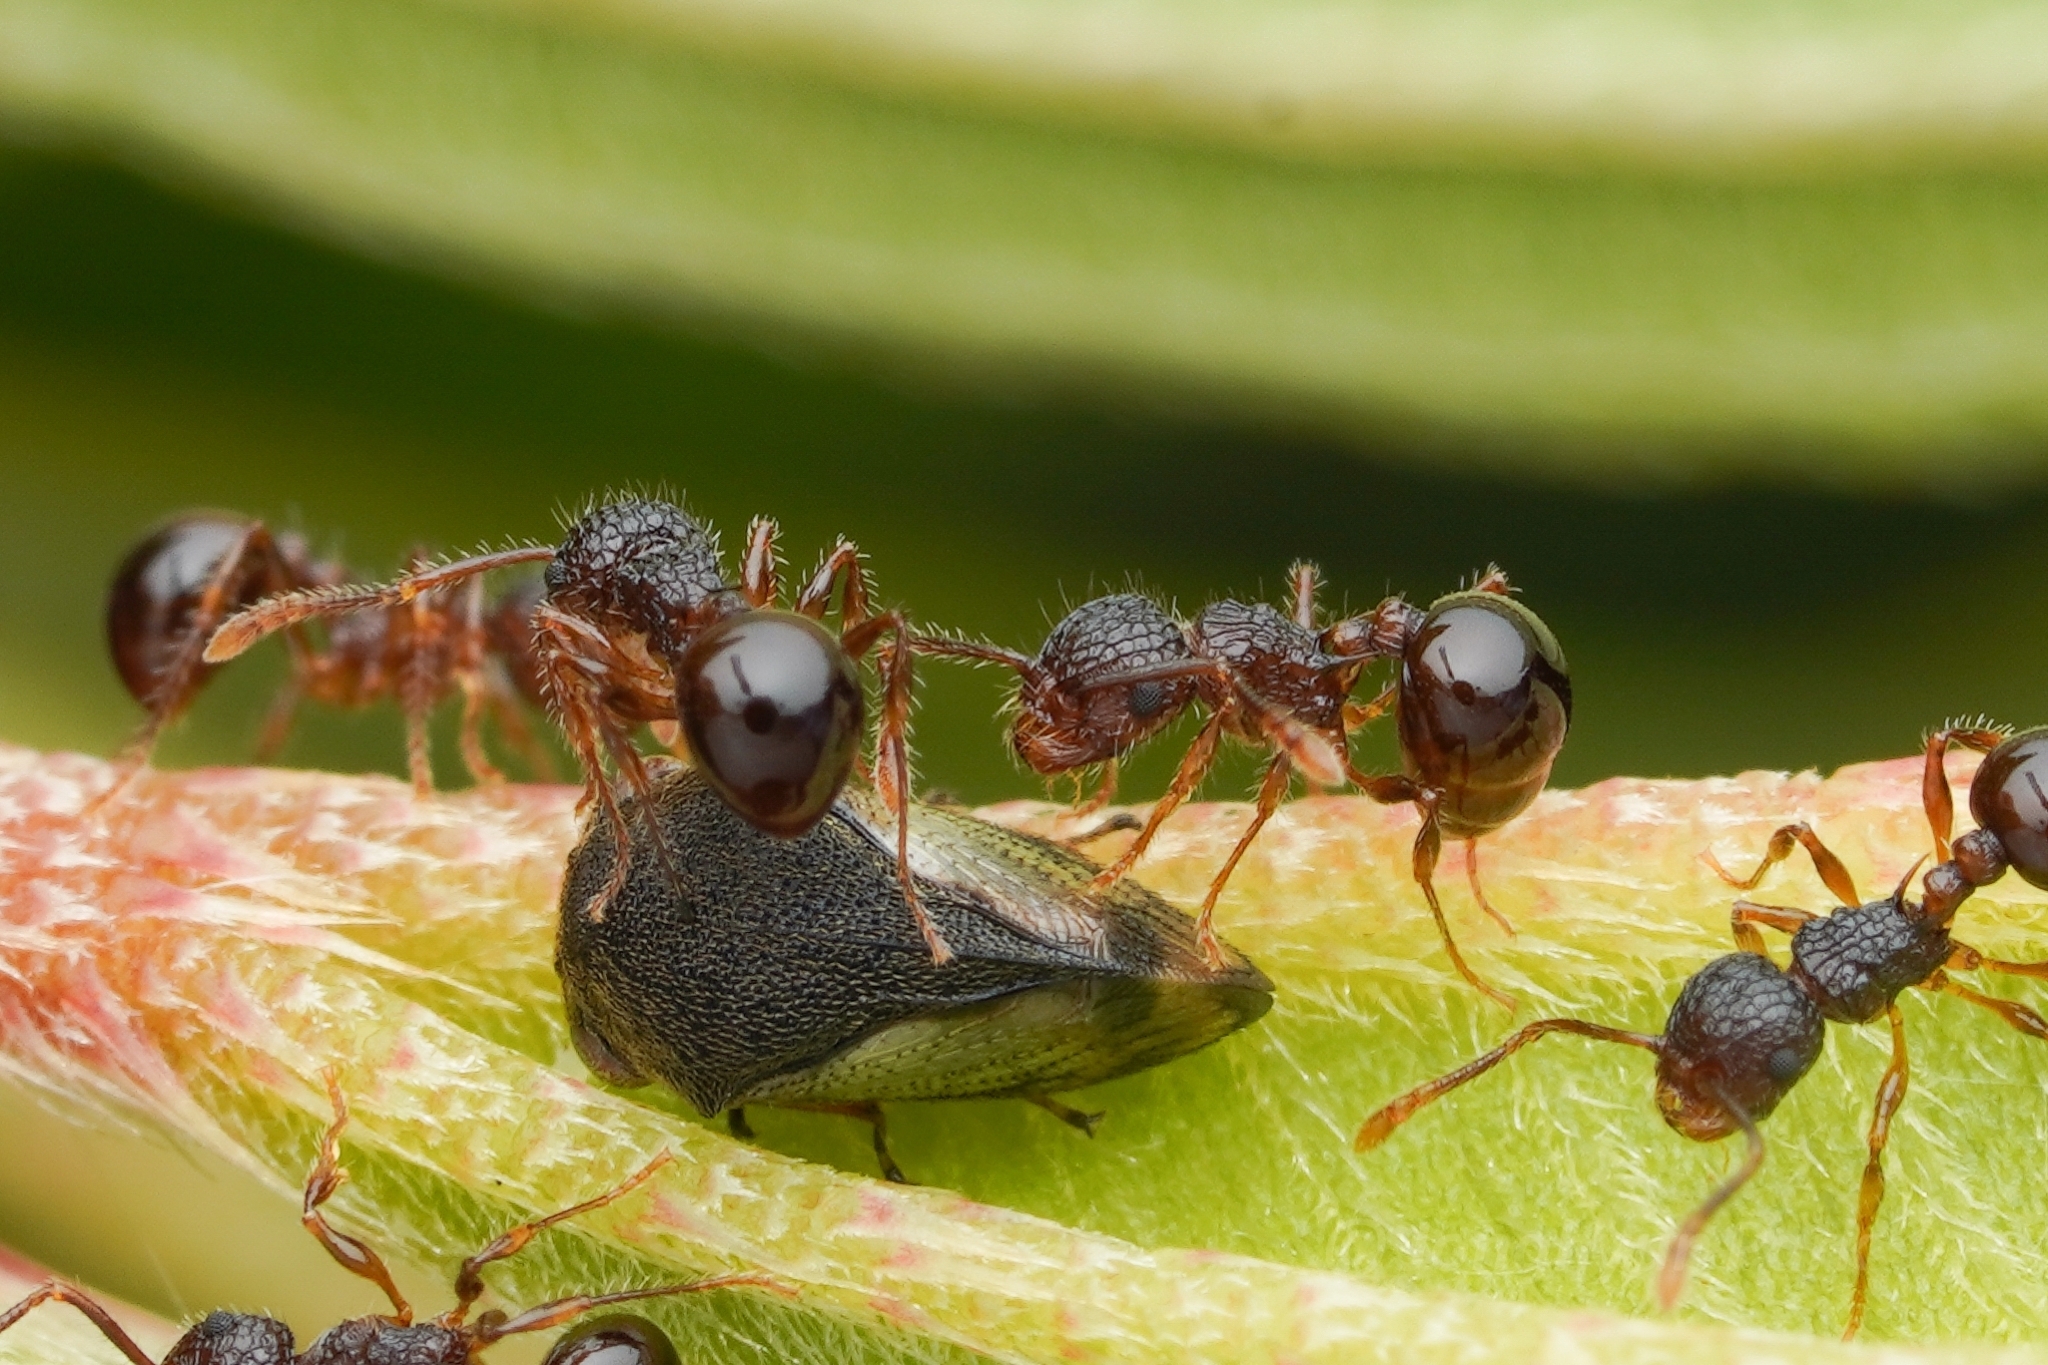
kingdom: Animalia
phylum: Arthropoda
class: Insecta
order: Hymenoptera
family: Formicidae
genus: Pristomyrmex
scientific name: Pristomyrmex punctatus
